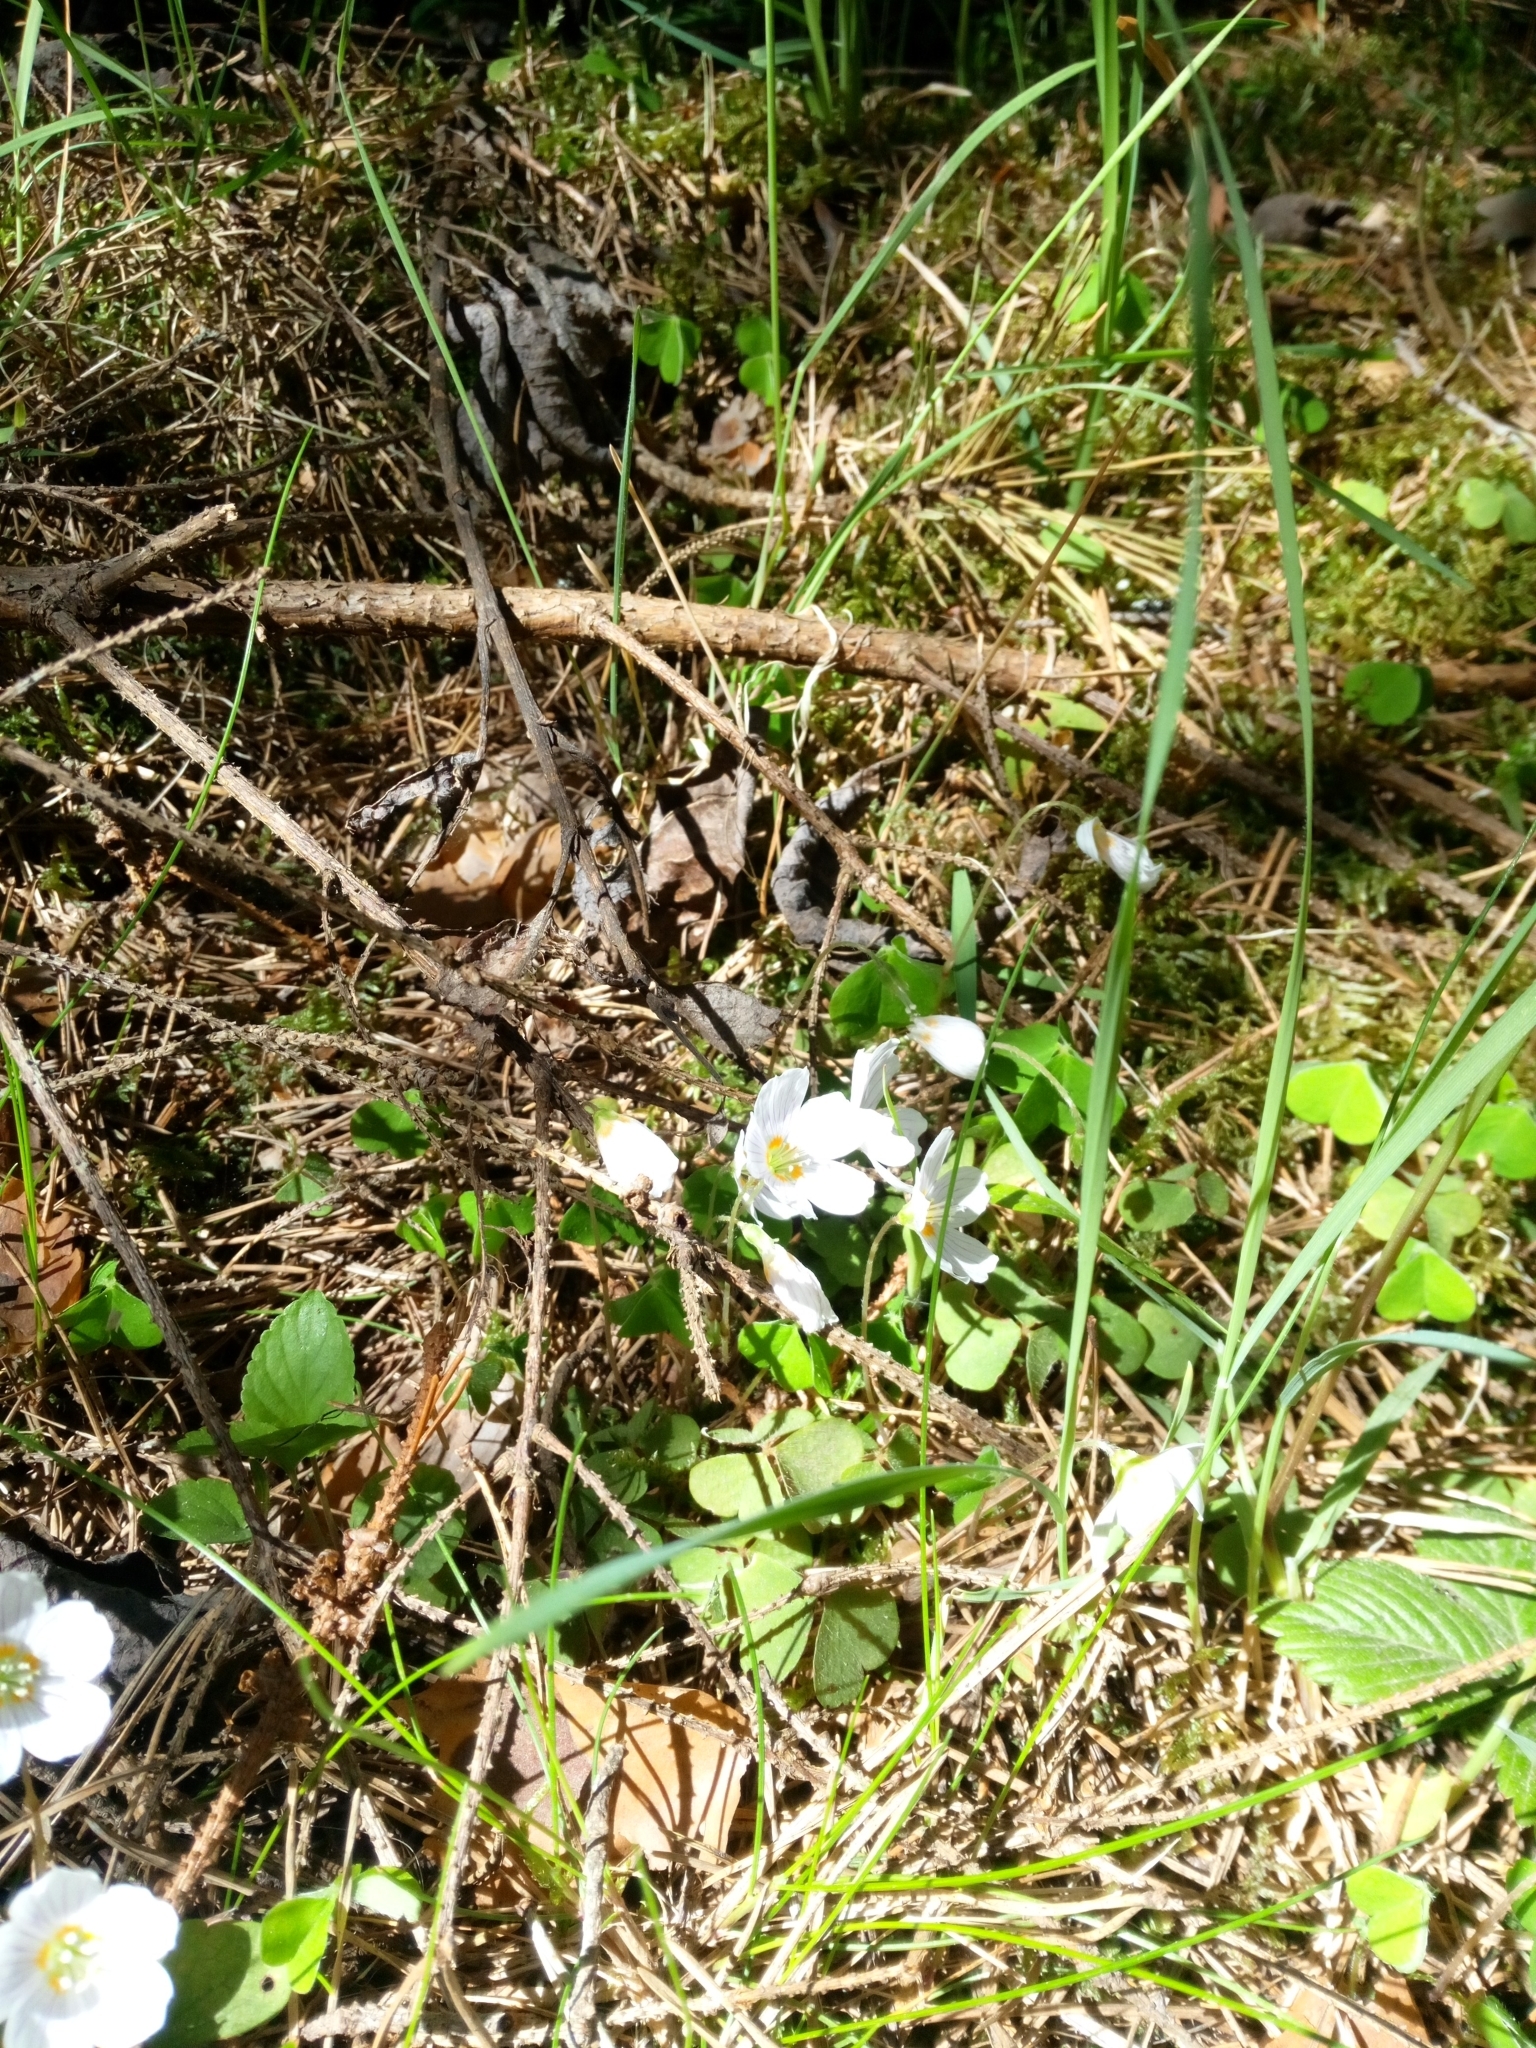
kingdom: Plantae
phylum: Tracheophyta
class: Magnoliopsida
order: Oxalidales
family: Oxalidaceae
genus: Oxalis
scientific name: Oxalis acetosella
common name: Wood-sorrel
